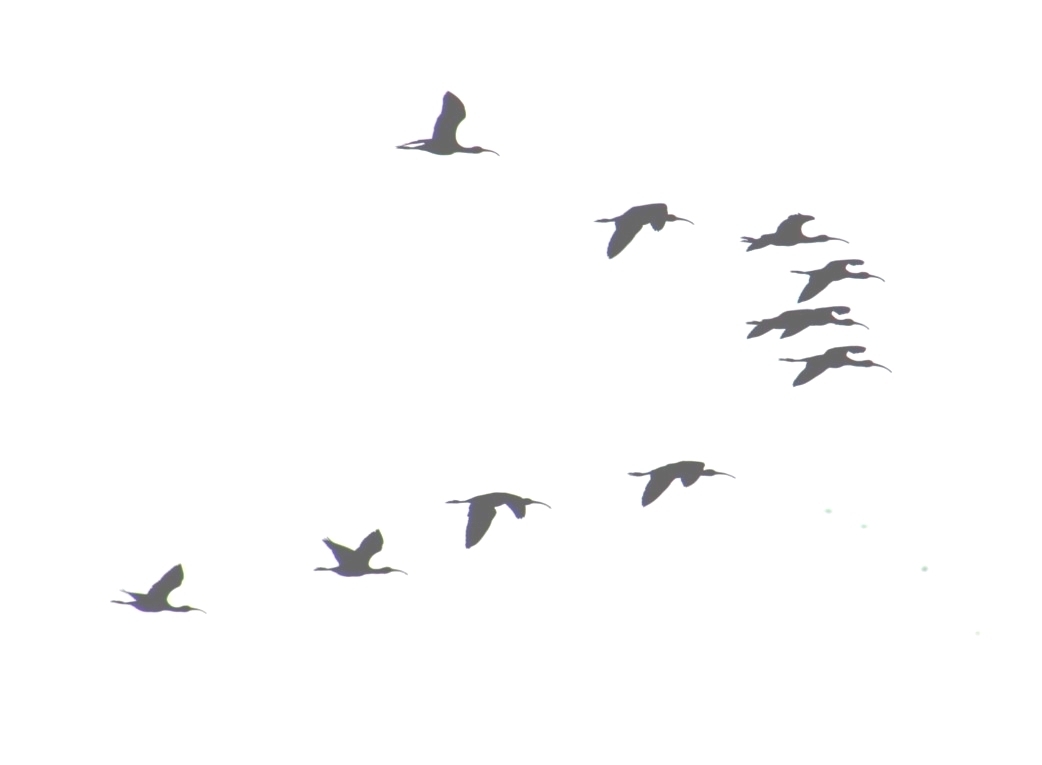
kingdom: Animalia
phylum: Chordata
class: Aves
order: Pelecaniformes
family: Threskiornithidae
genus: Plegadis
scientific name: Plegadis chihi
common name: White-faced ibis
